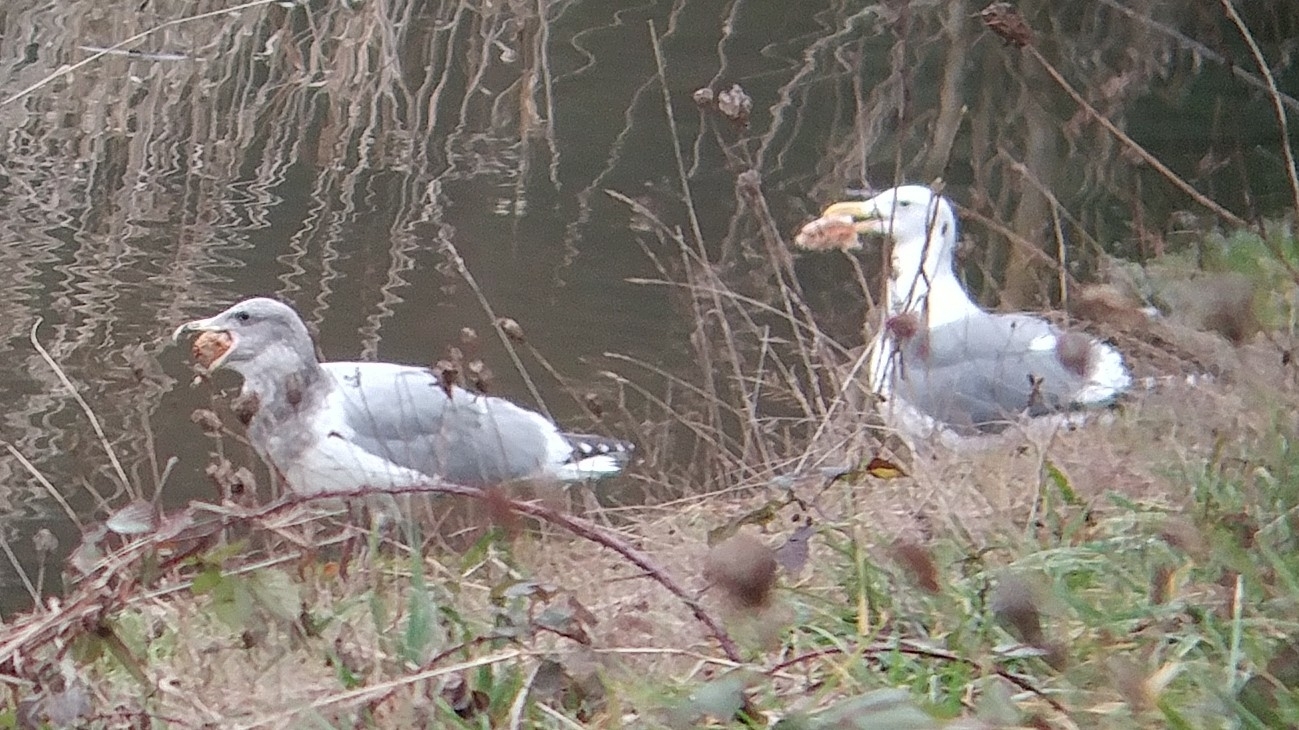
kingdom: Animalia
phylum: Chordata
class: Aves
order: Charadriiformes
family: Laridae
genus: Larus
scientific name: Larus
